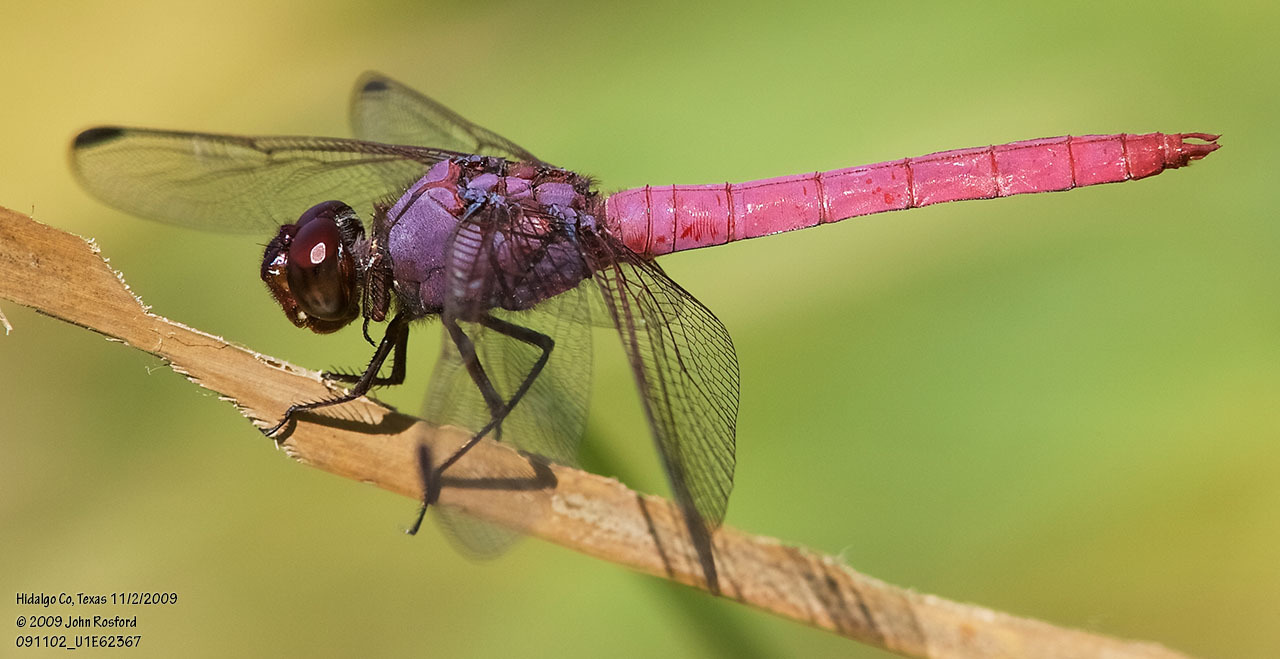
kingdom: Animalia
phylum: Arthropoda
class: Insecta
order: Odonata
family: Libellulidae
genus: Orthemis
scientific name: Orthemis ferruginea
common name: Roseate skimmer
